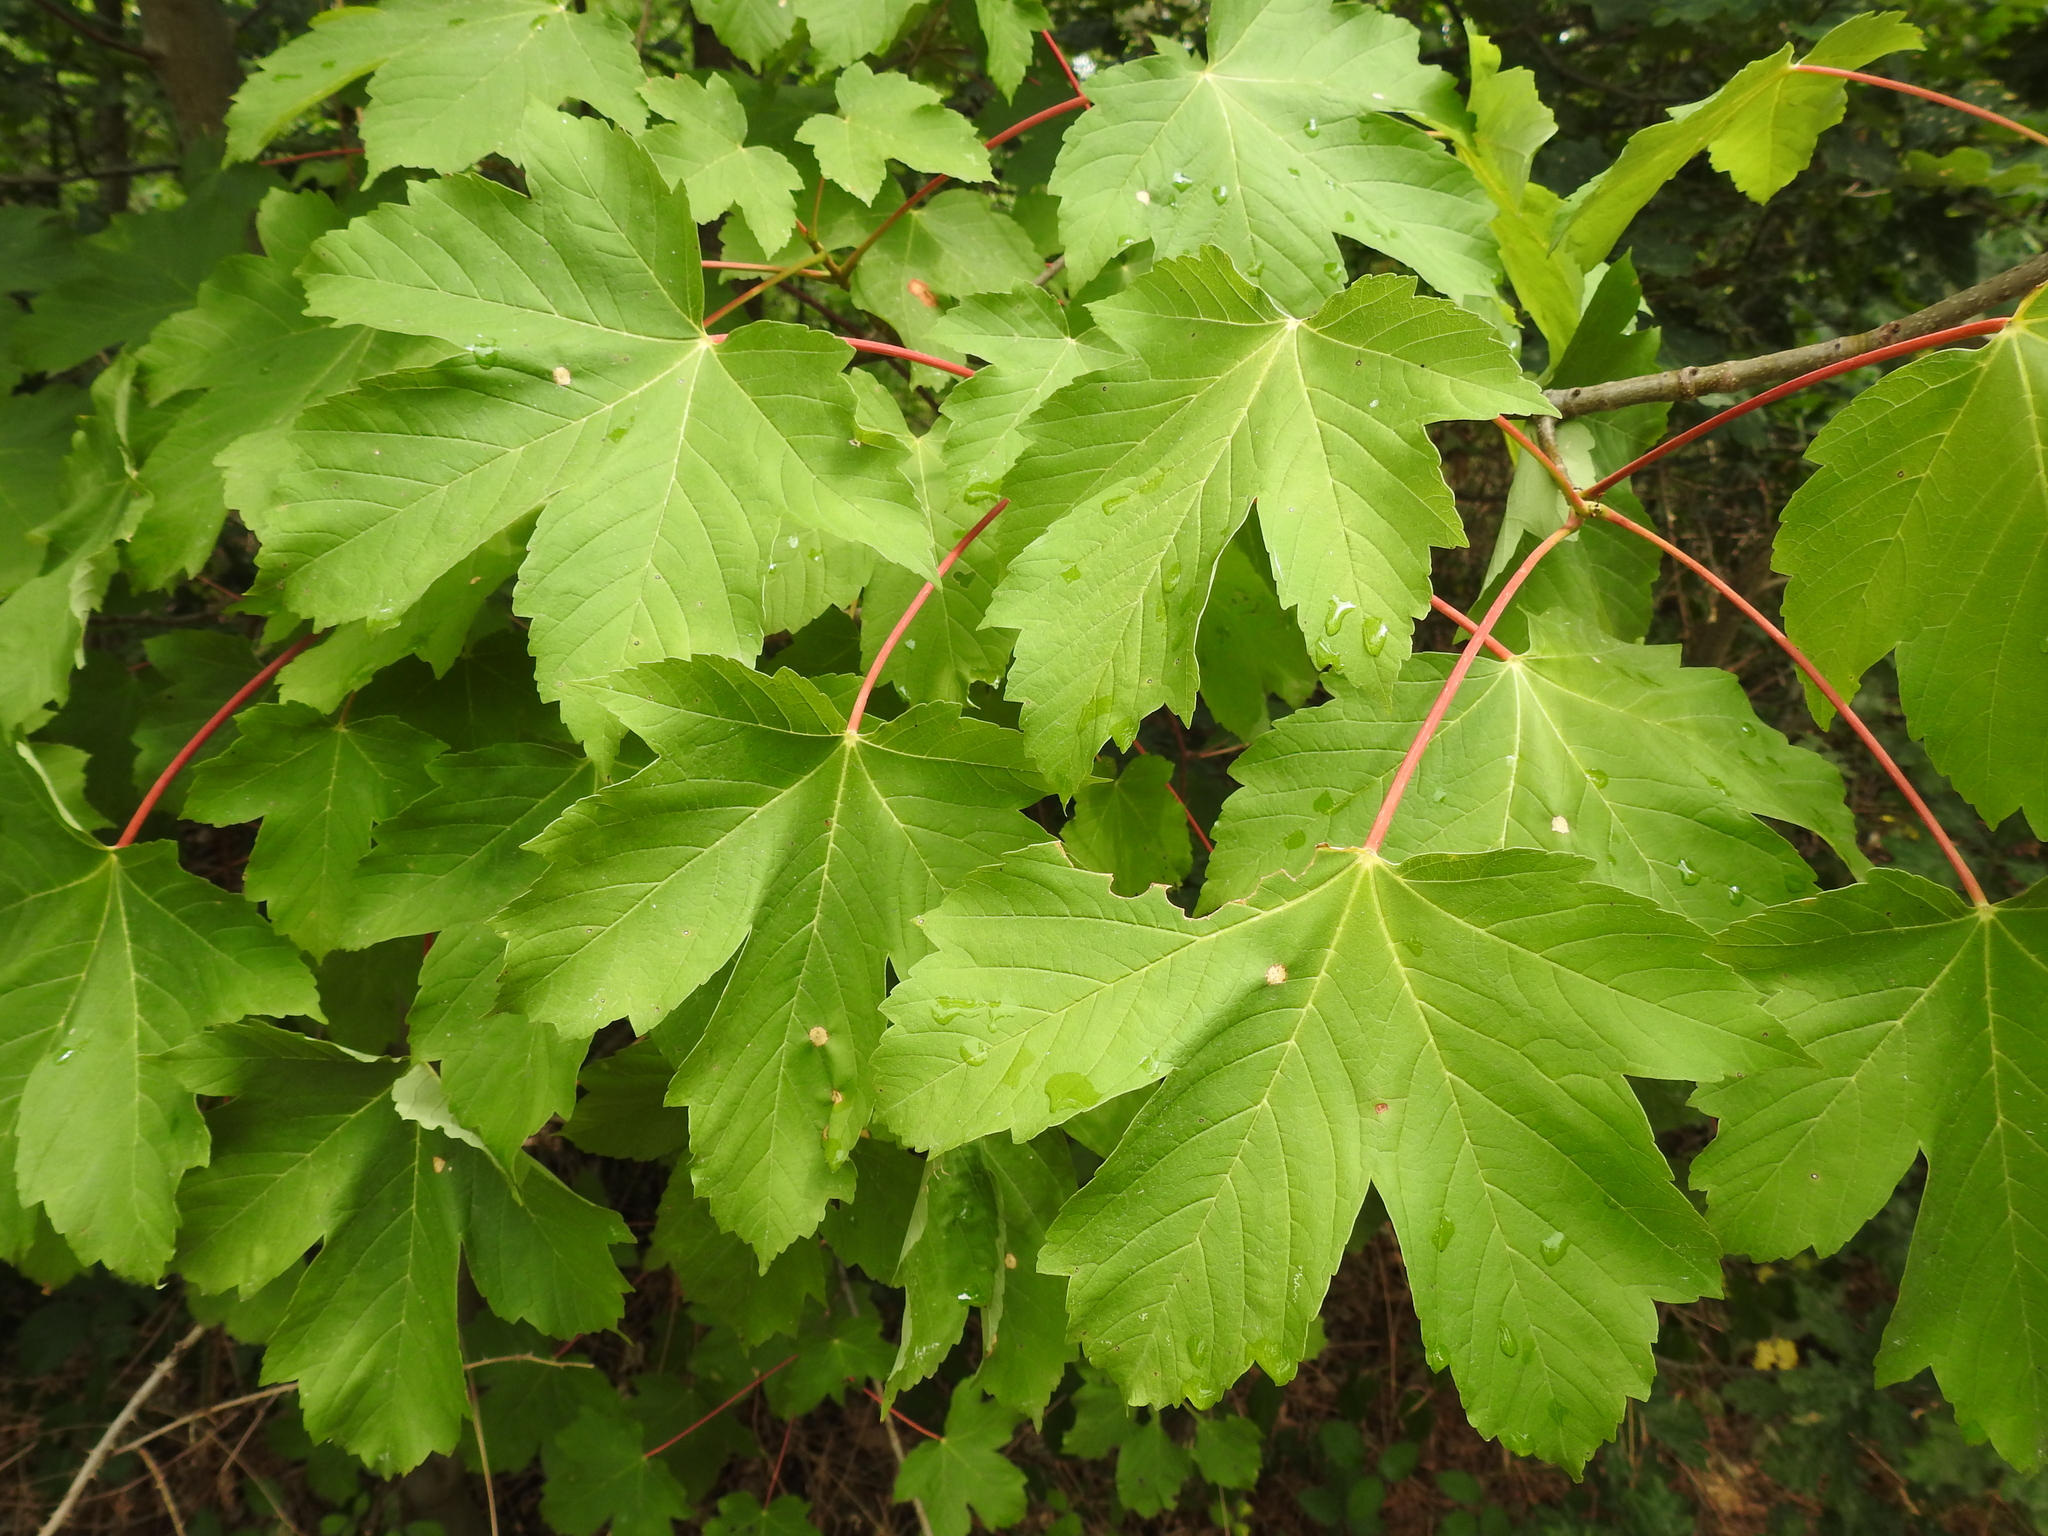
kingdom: Plantae
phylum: Tracheophyta
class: Magnoliopsida
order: Sapindales
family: Sapindaceae
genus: Acer
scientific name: Acer pseudoplatanus
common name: Sycamore
